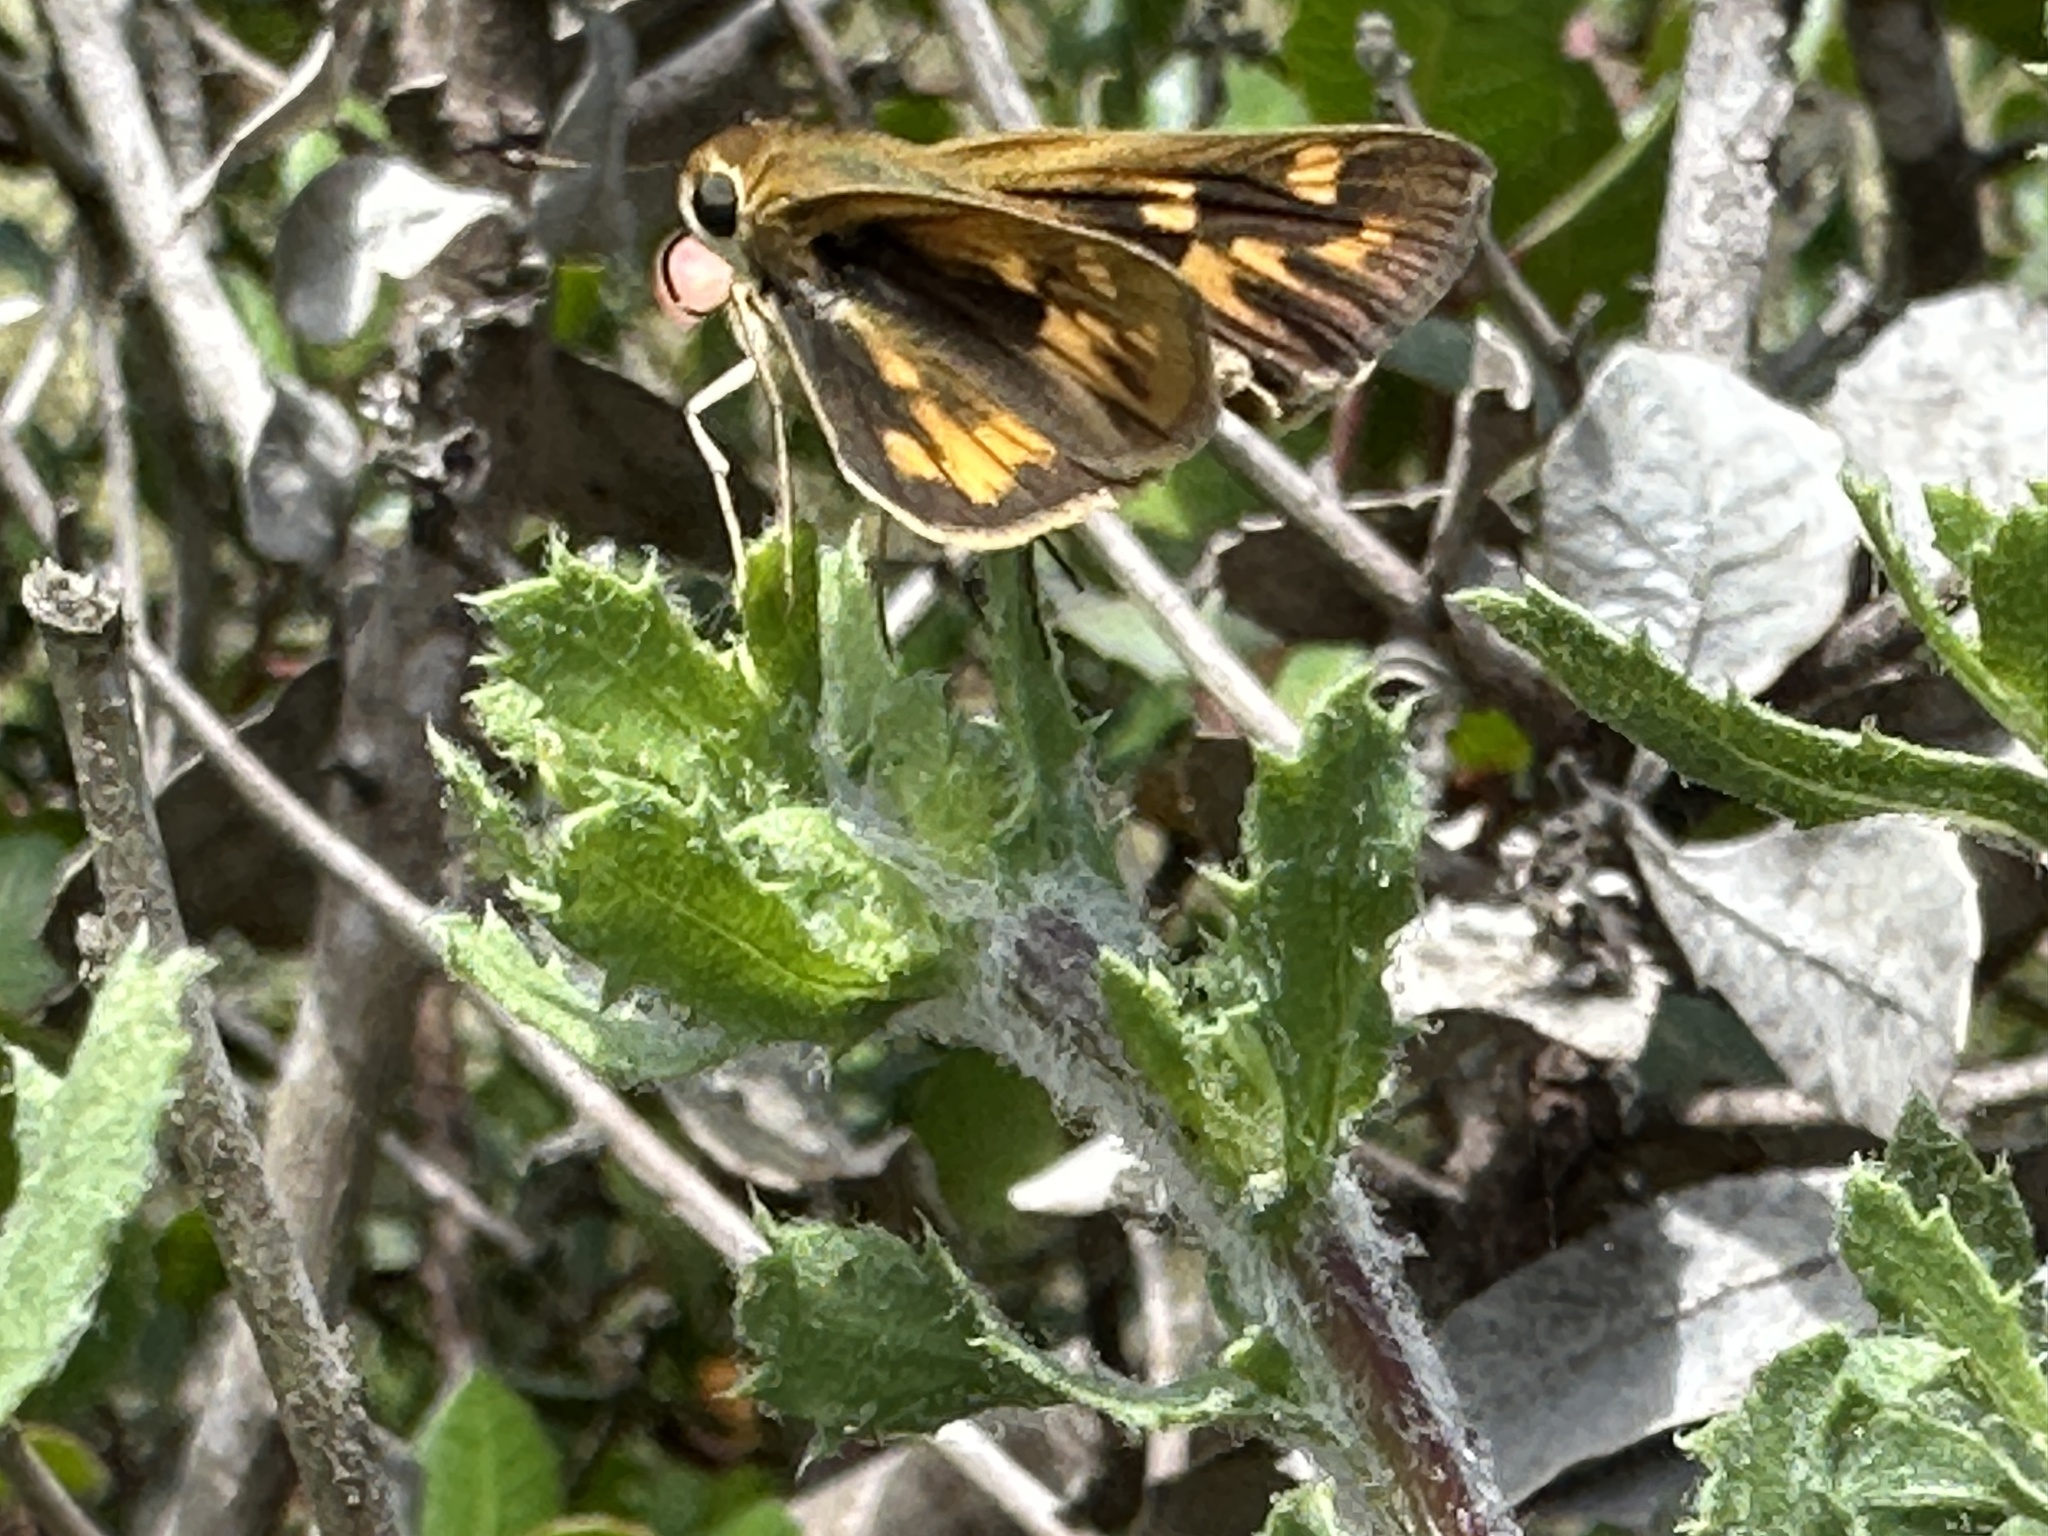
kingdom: Animalia
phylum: Arthropoda
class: Insecta
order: Lepidoptera
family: Hesperiidae
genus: Hylephila
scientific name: Hylephila phyleus
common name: Fiery skipper
